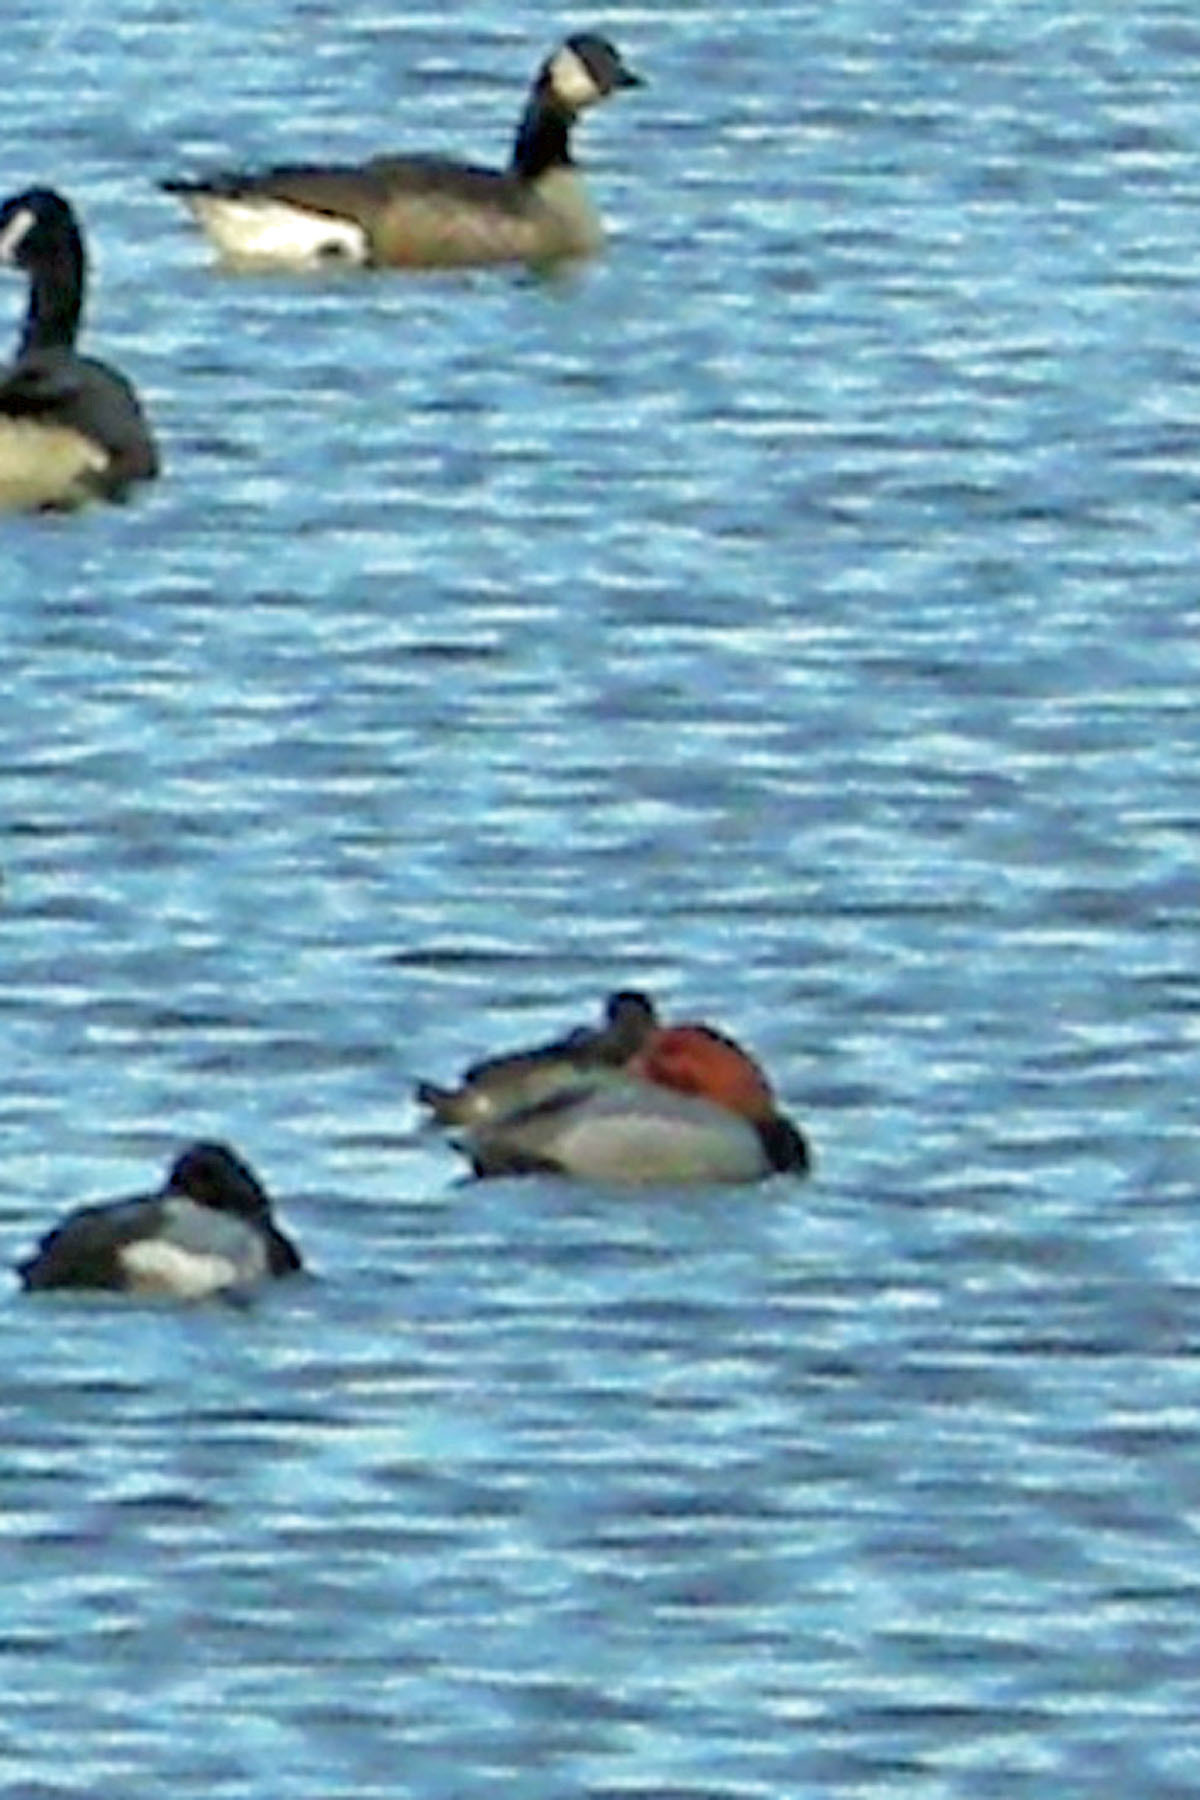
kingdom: Animalia
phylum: Chordata
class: Aves
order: Anseriformes
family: Anatidae
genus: Aythya
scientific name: Aythya americana
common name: Redhead
